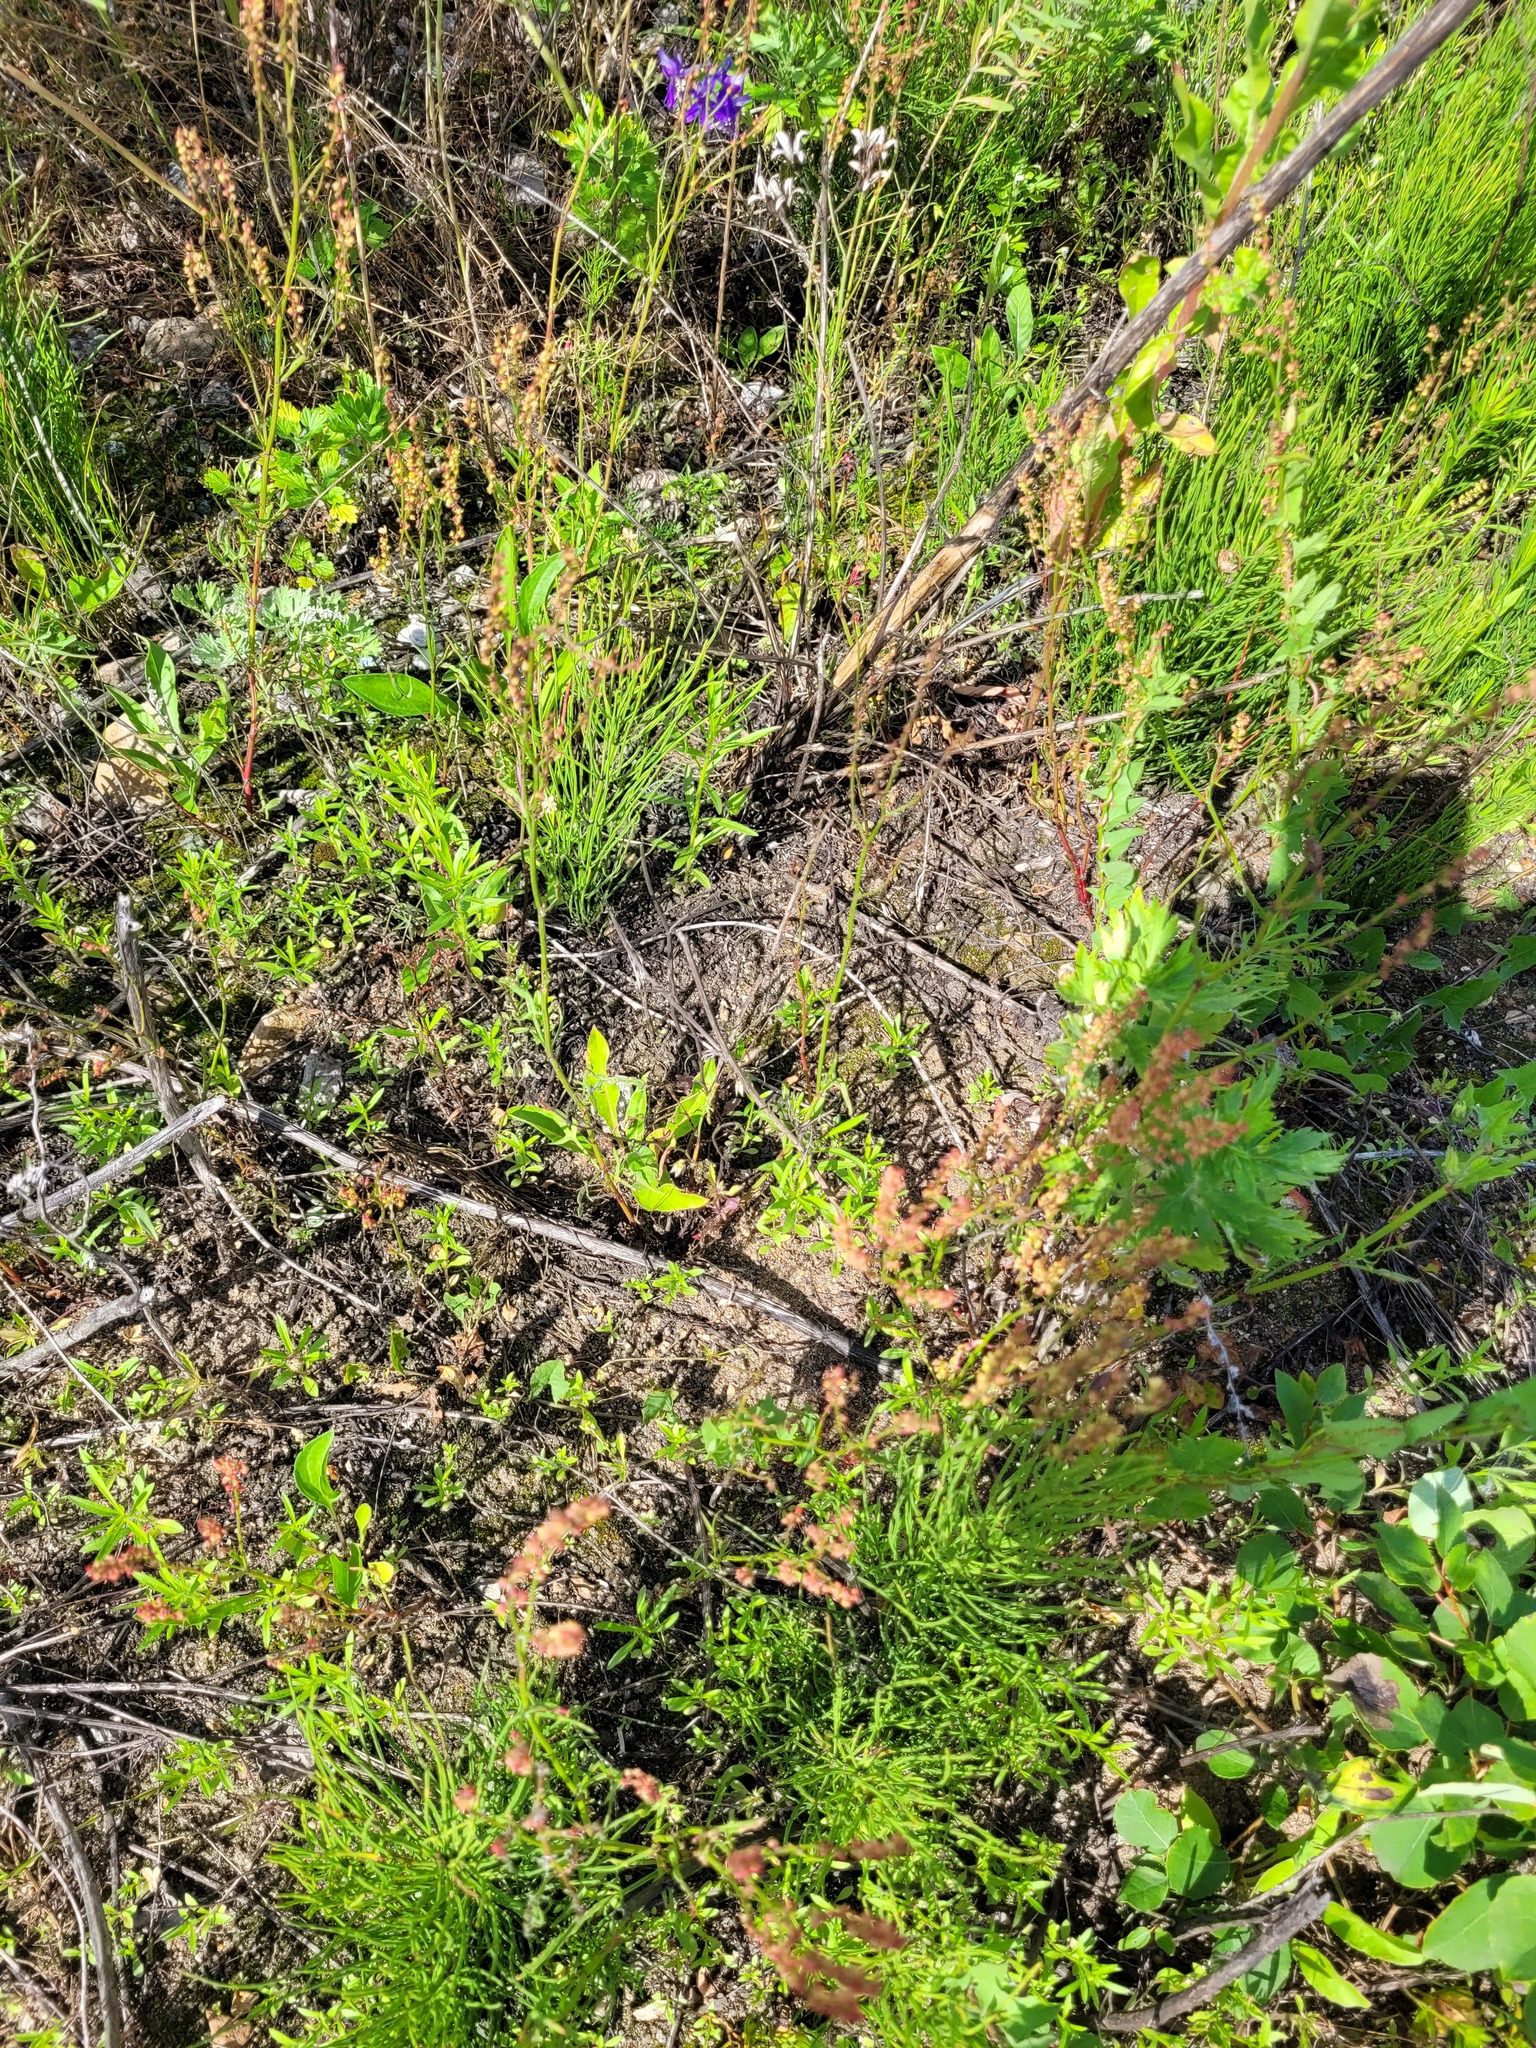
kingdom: Plantae
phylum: Tracheophyta
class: Magnoliopsida
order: Caryophyllales
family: Polygonaceae
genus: Rumex
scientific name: Rumex acetosella
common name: Common sheep sorrel
